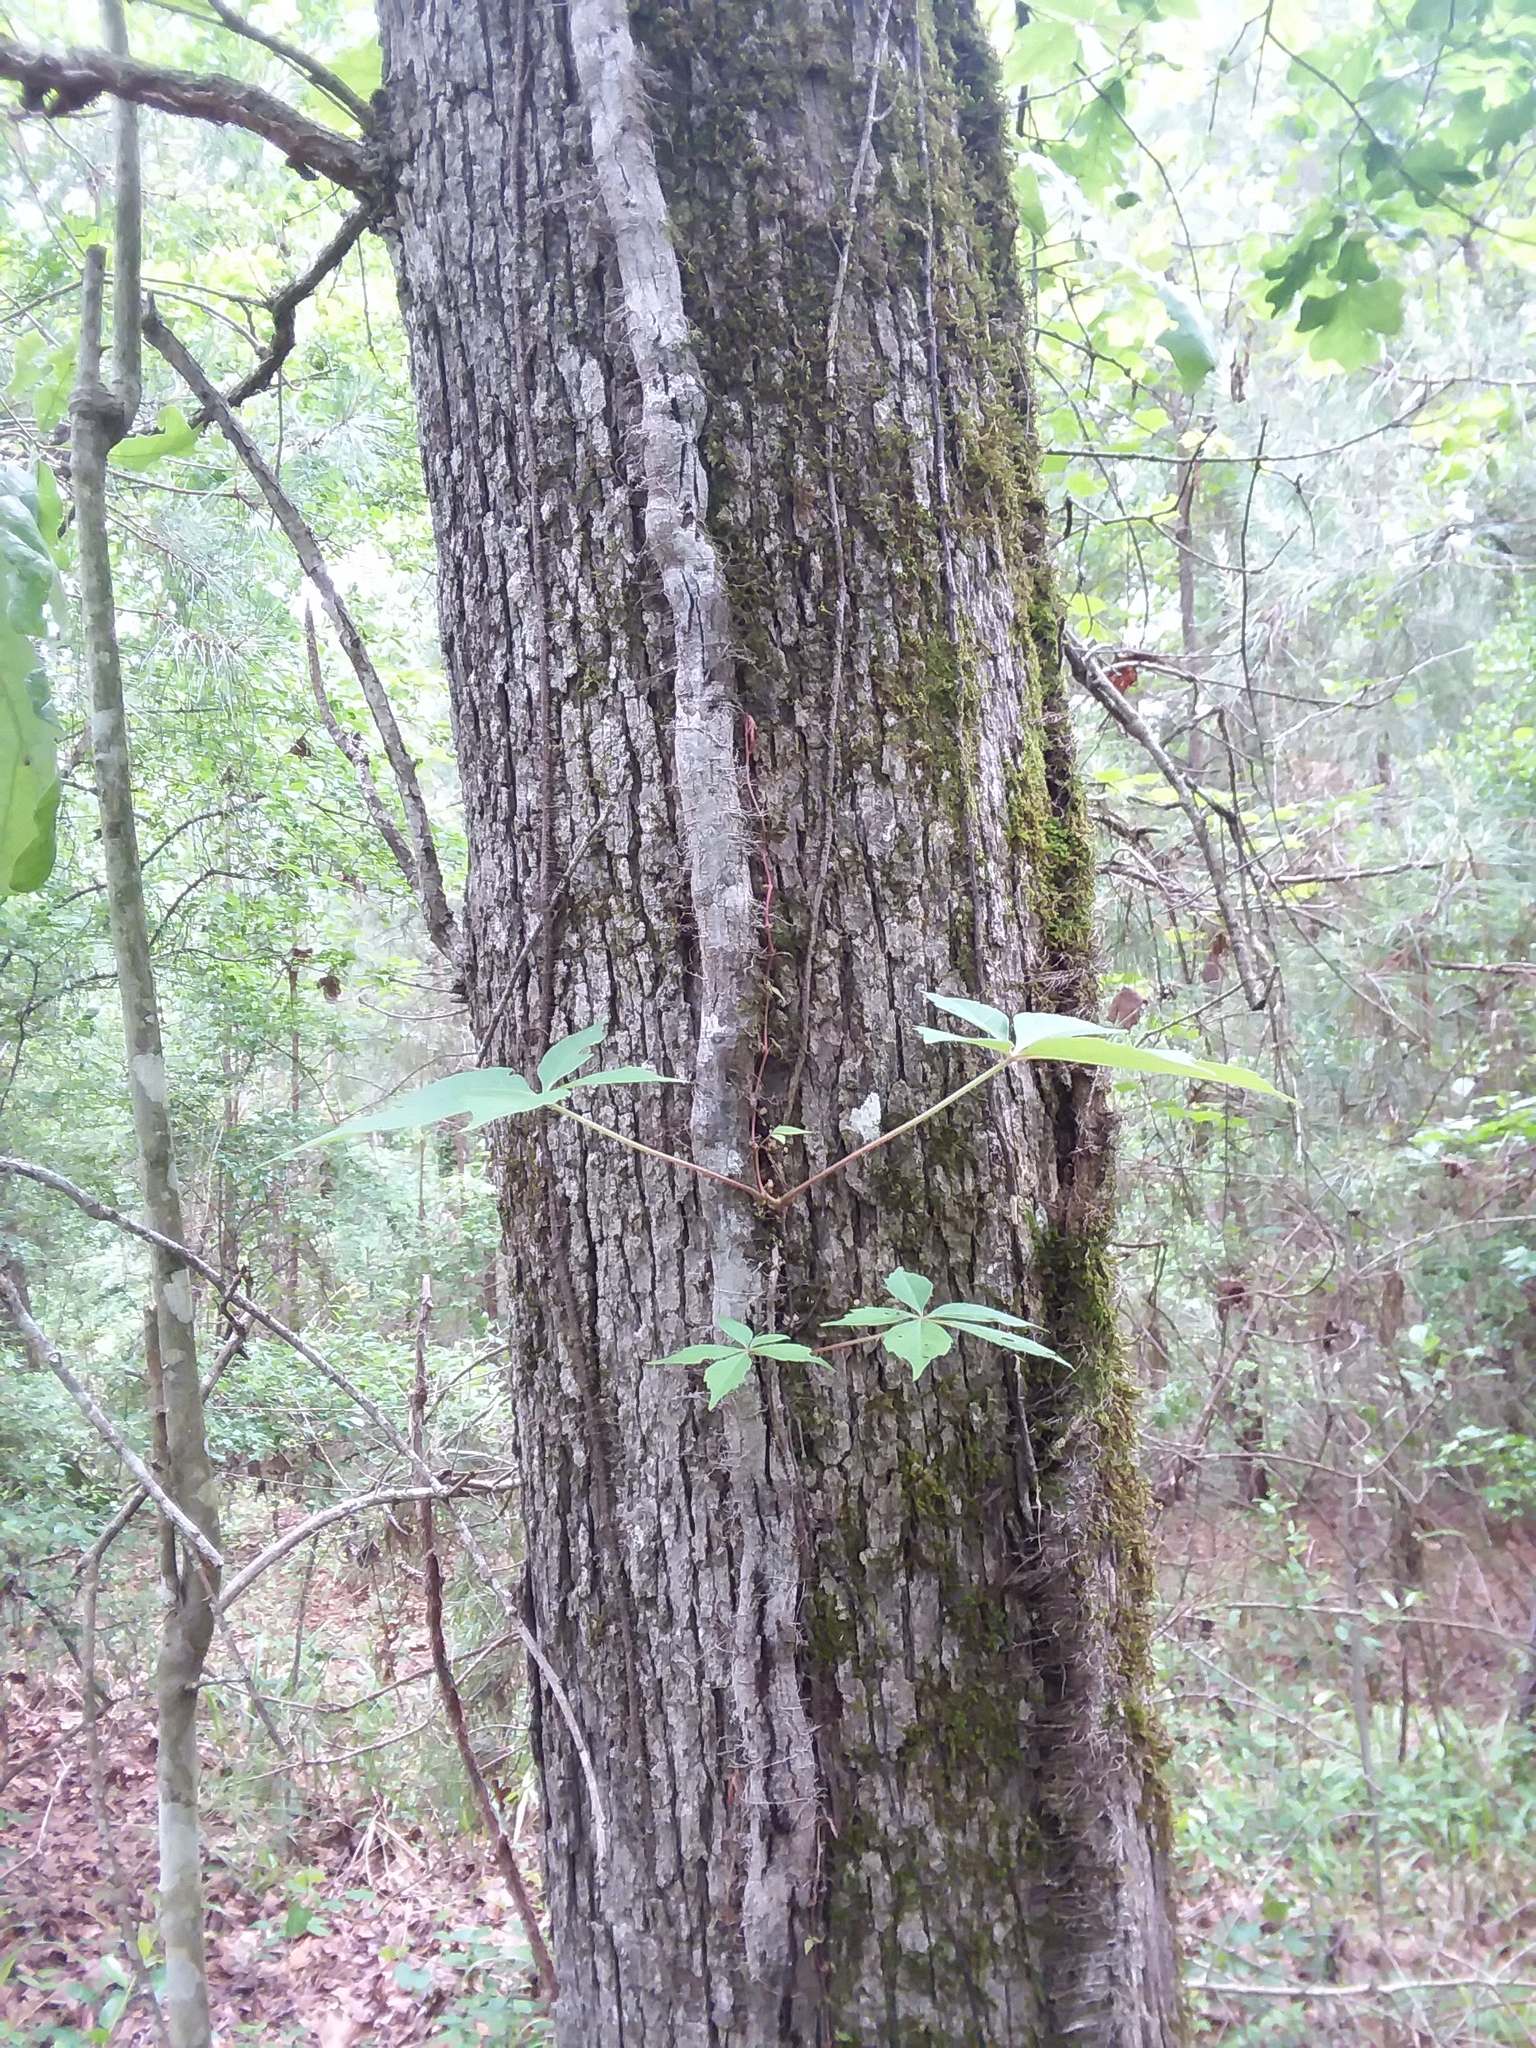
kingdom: Plantae
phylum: Tracheophyta
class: Magnoliopsida
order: Fagales
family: Fagaceae
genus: Quercus
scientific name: Quercus stellata
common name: Post oak
